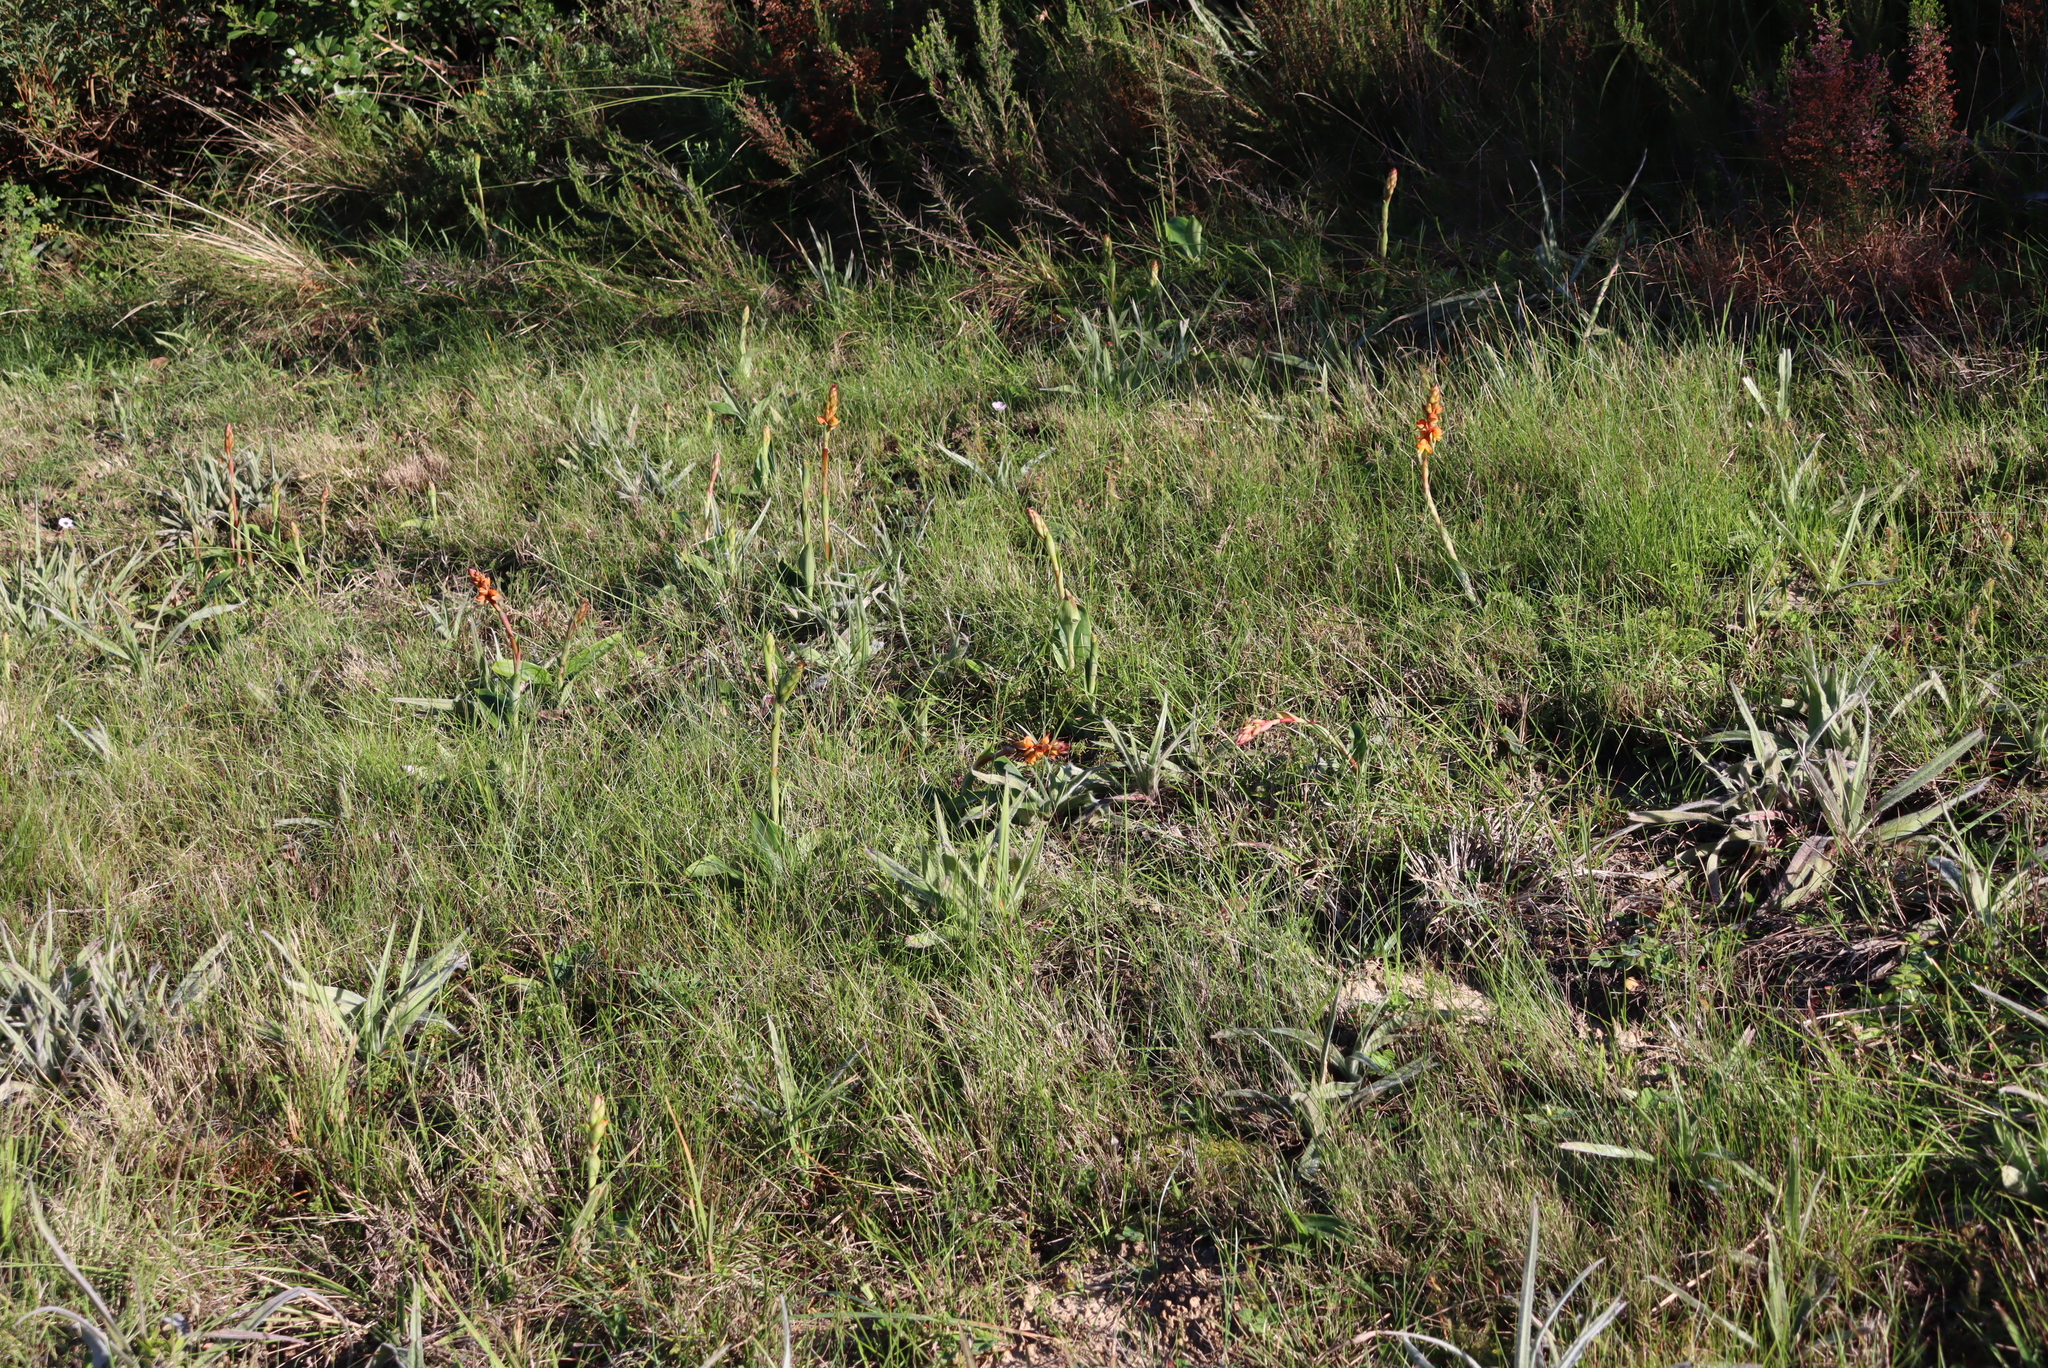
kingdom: Plantae
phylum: Tracheophyta
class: Liliopsida
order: Asparagales
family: Orchidaceae
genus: Satyrium
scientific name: Satyrium coriifolium
